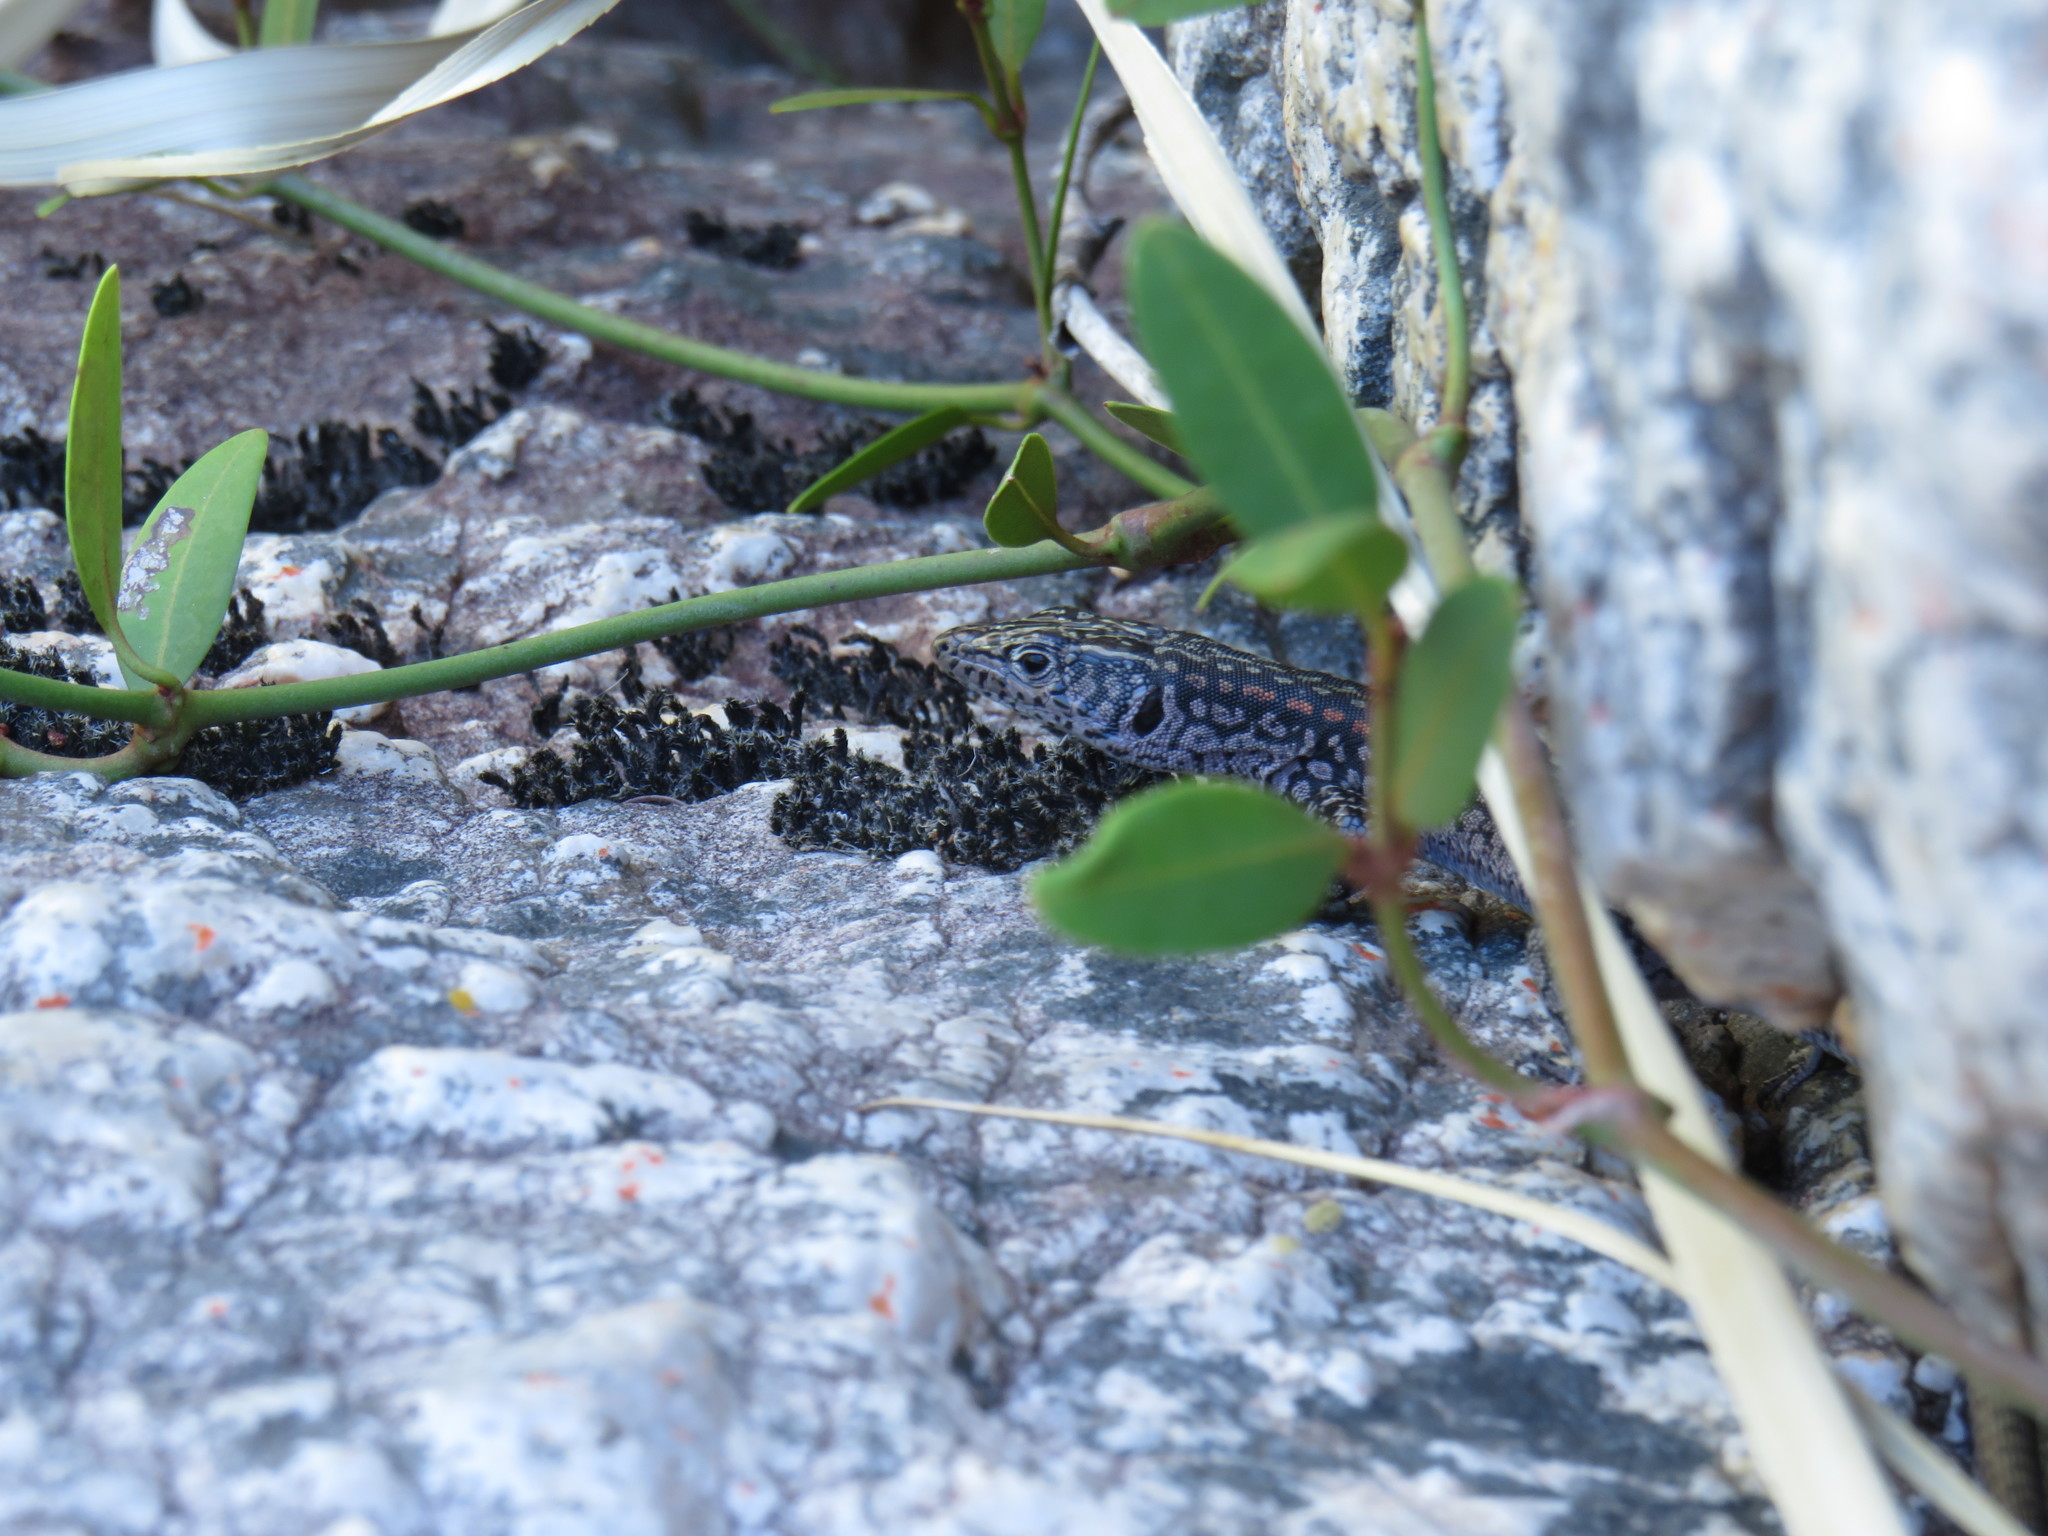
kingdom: Animalia
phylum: Chordata
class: Squamata
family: Lacertidae
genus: Australolacerta
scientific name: Australolacerta australis
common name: Southern rock lizard
